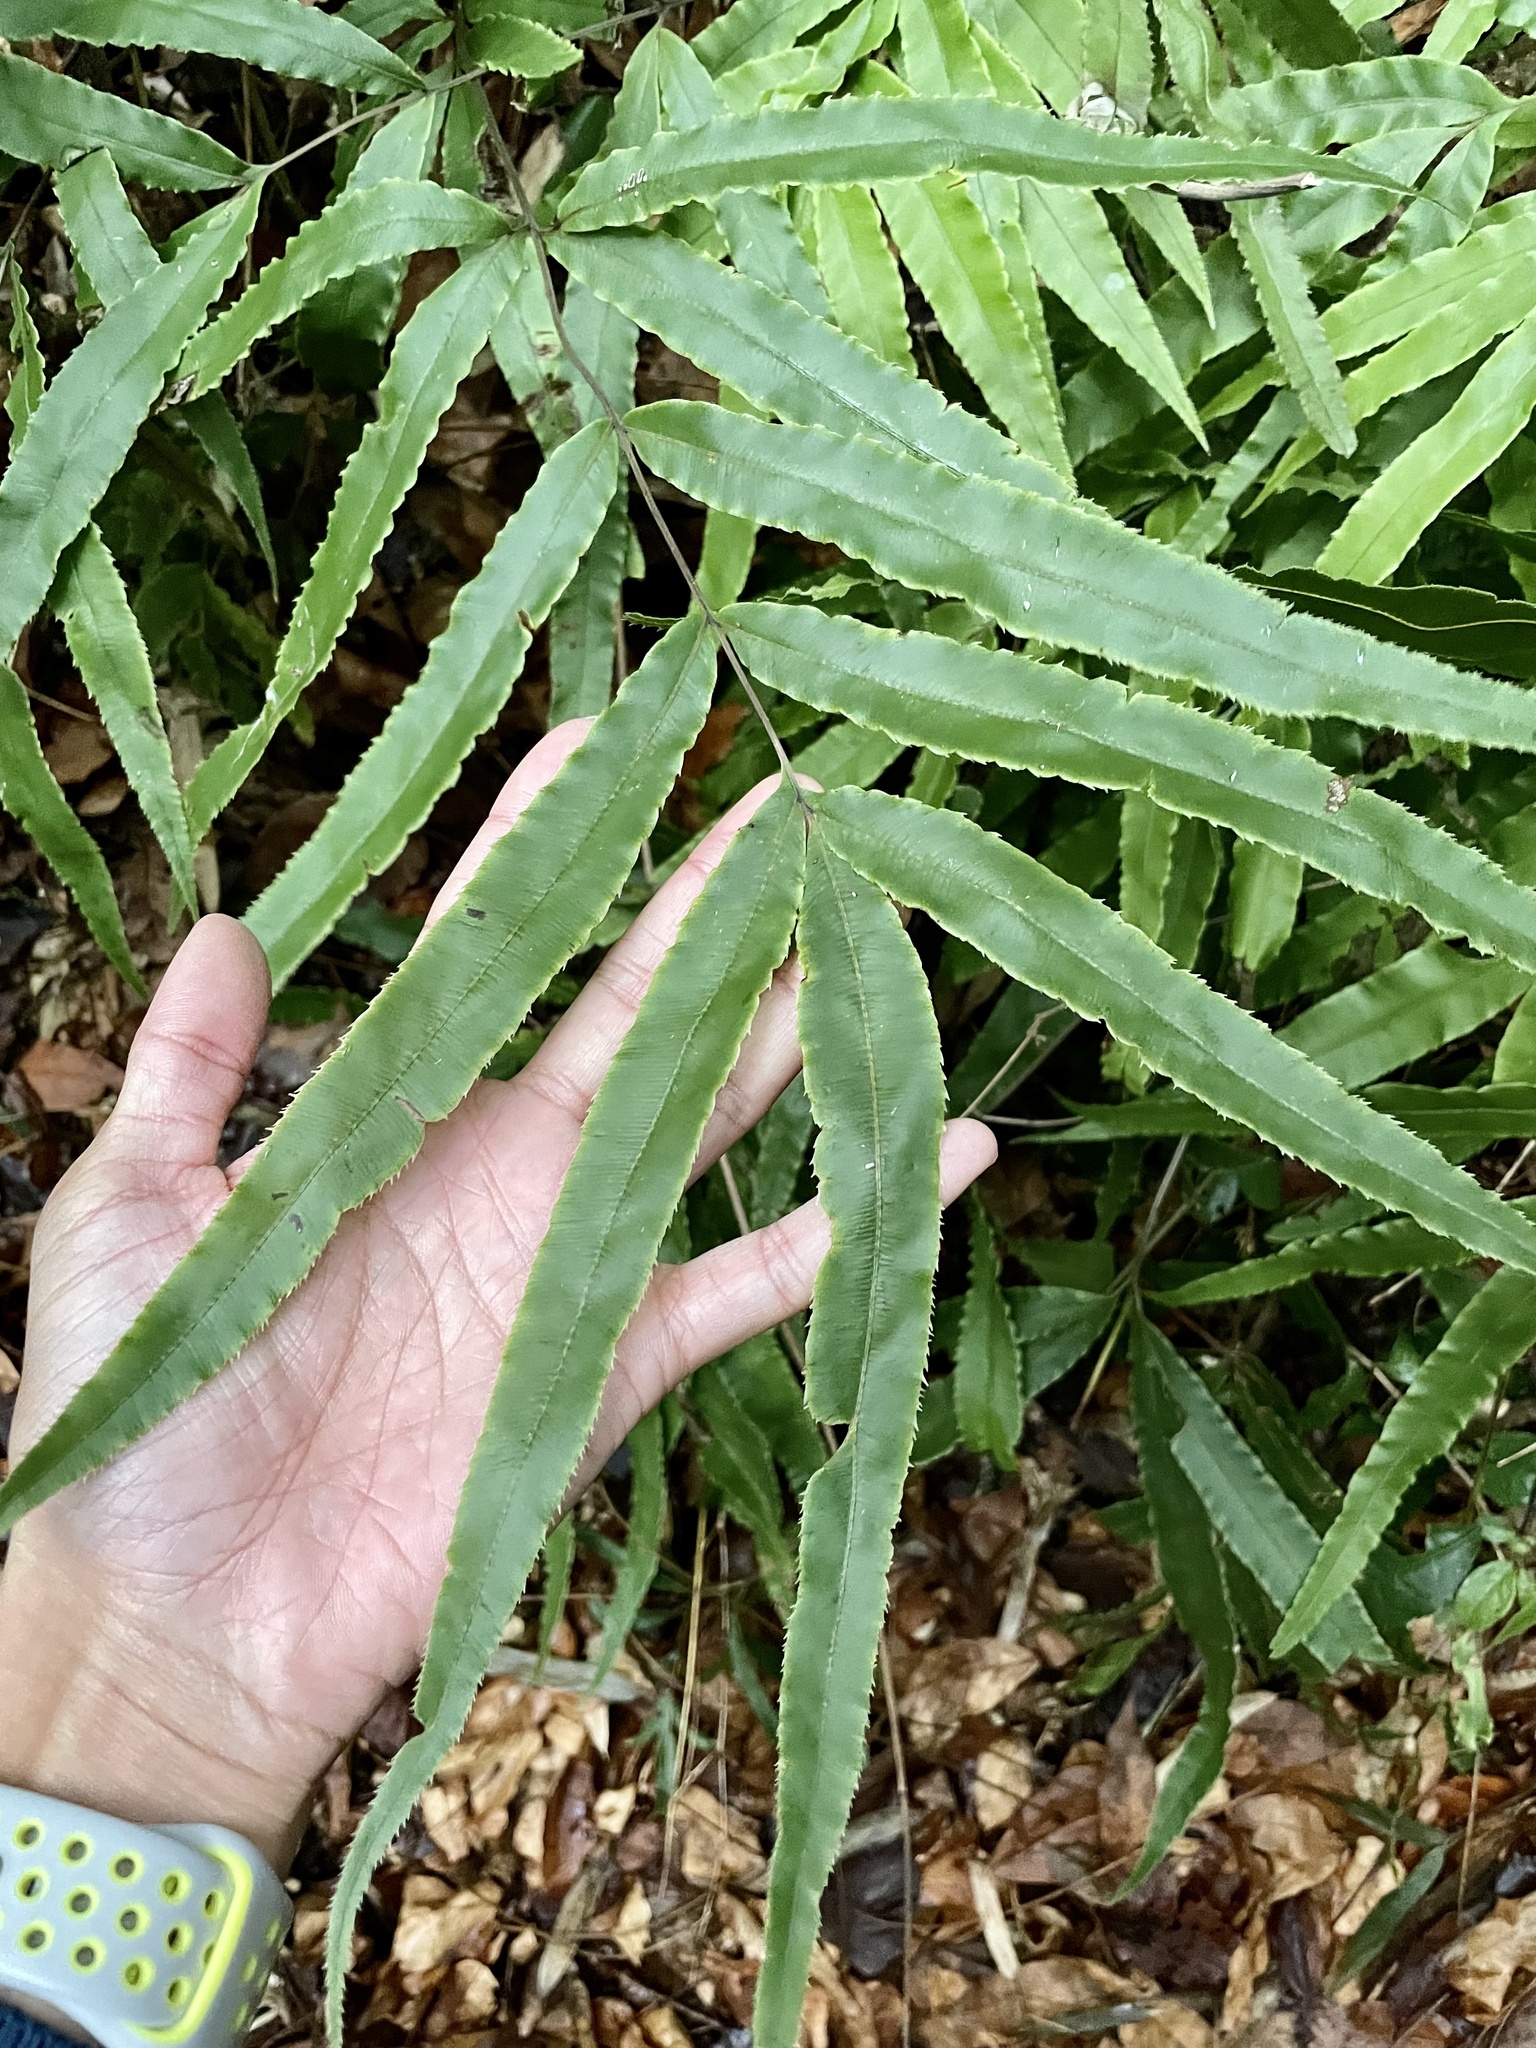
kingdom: Plantae
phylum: Tracheophyta
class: Polypodiopsida
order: Polypodiales
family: Pteridaceae
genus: Pteris
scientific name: Pteris cretica
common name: Ribbon fern
